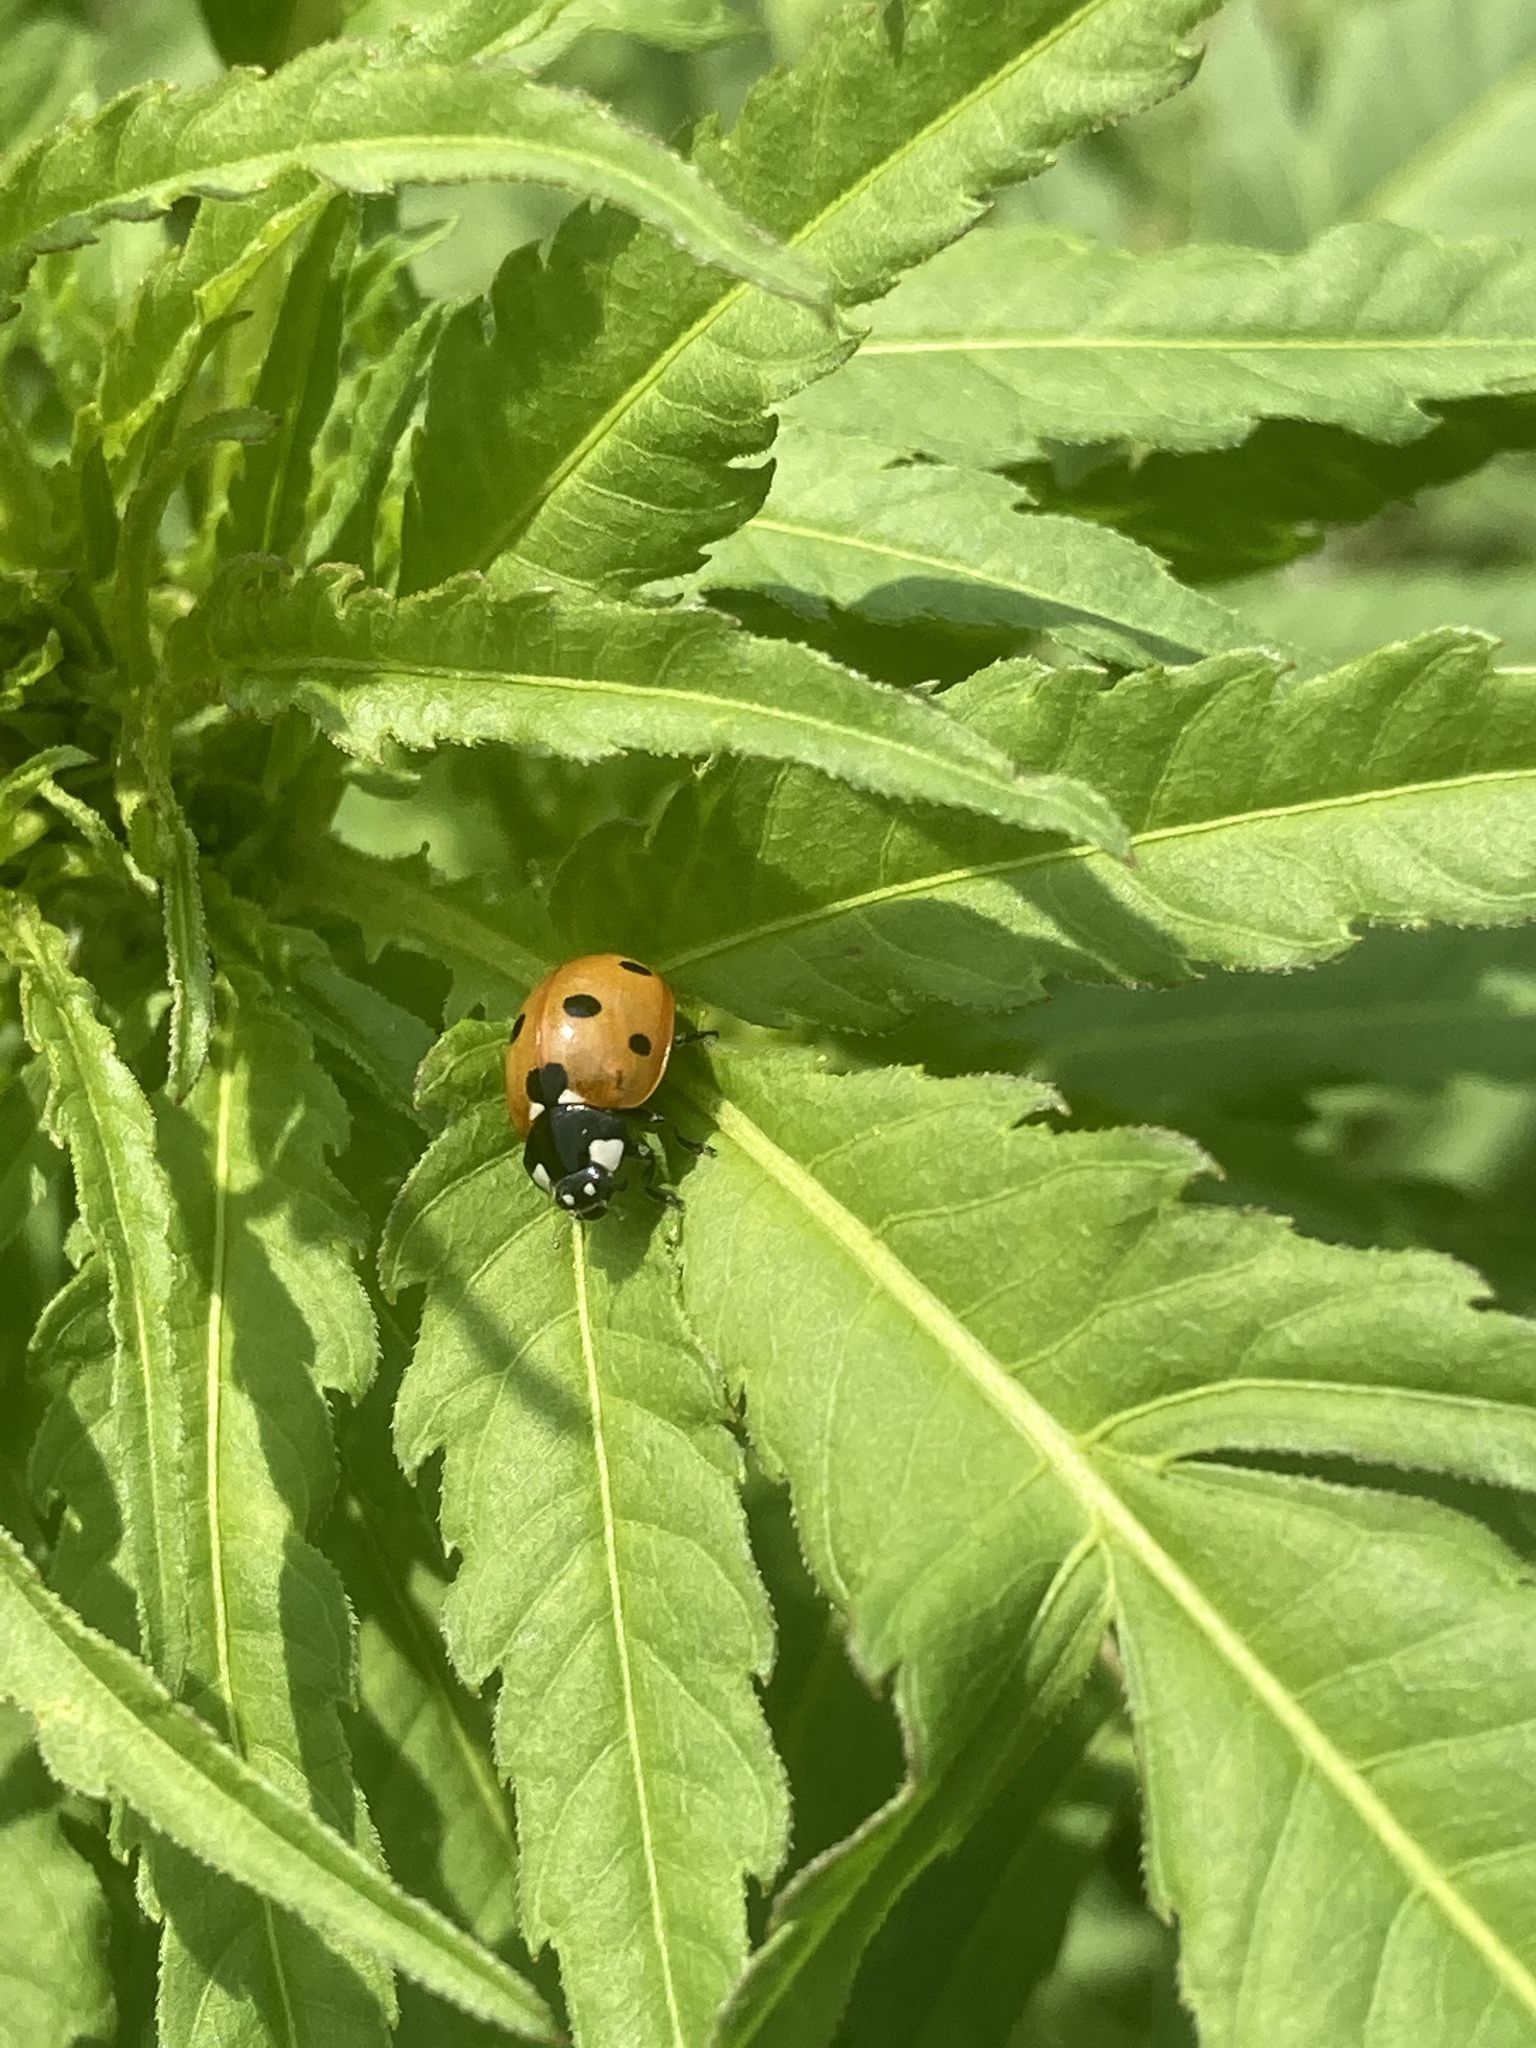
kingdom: Animalia
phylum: Arthropoda
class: Insecta
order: Coleoptera
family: Coccinellidae
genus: Coccinella
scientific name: Coccinella septempunctata
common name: Sevenspotted lady beetle
